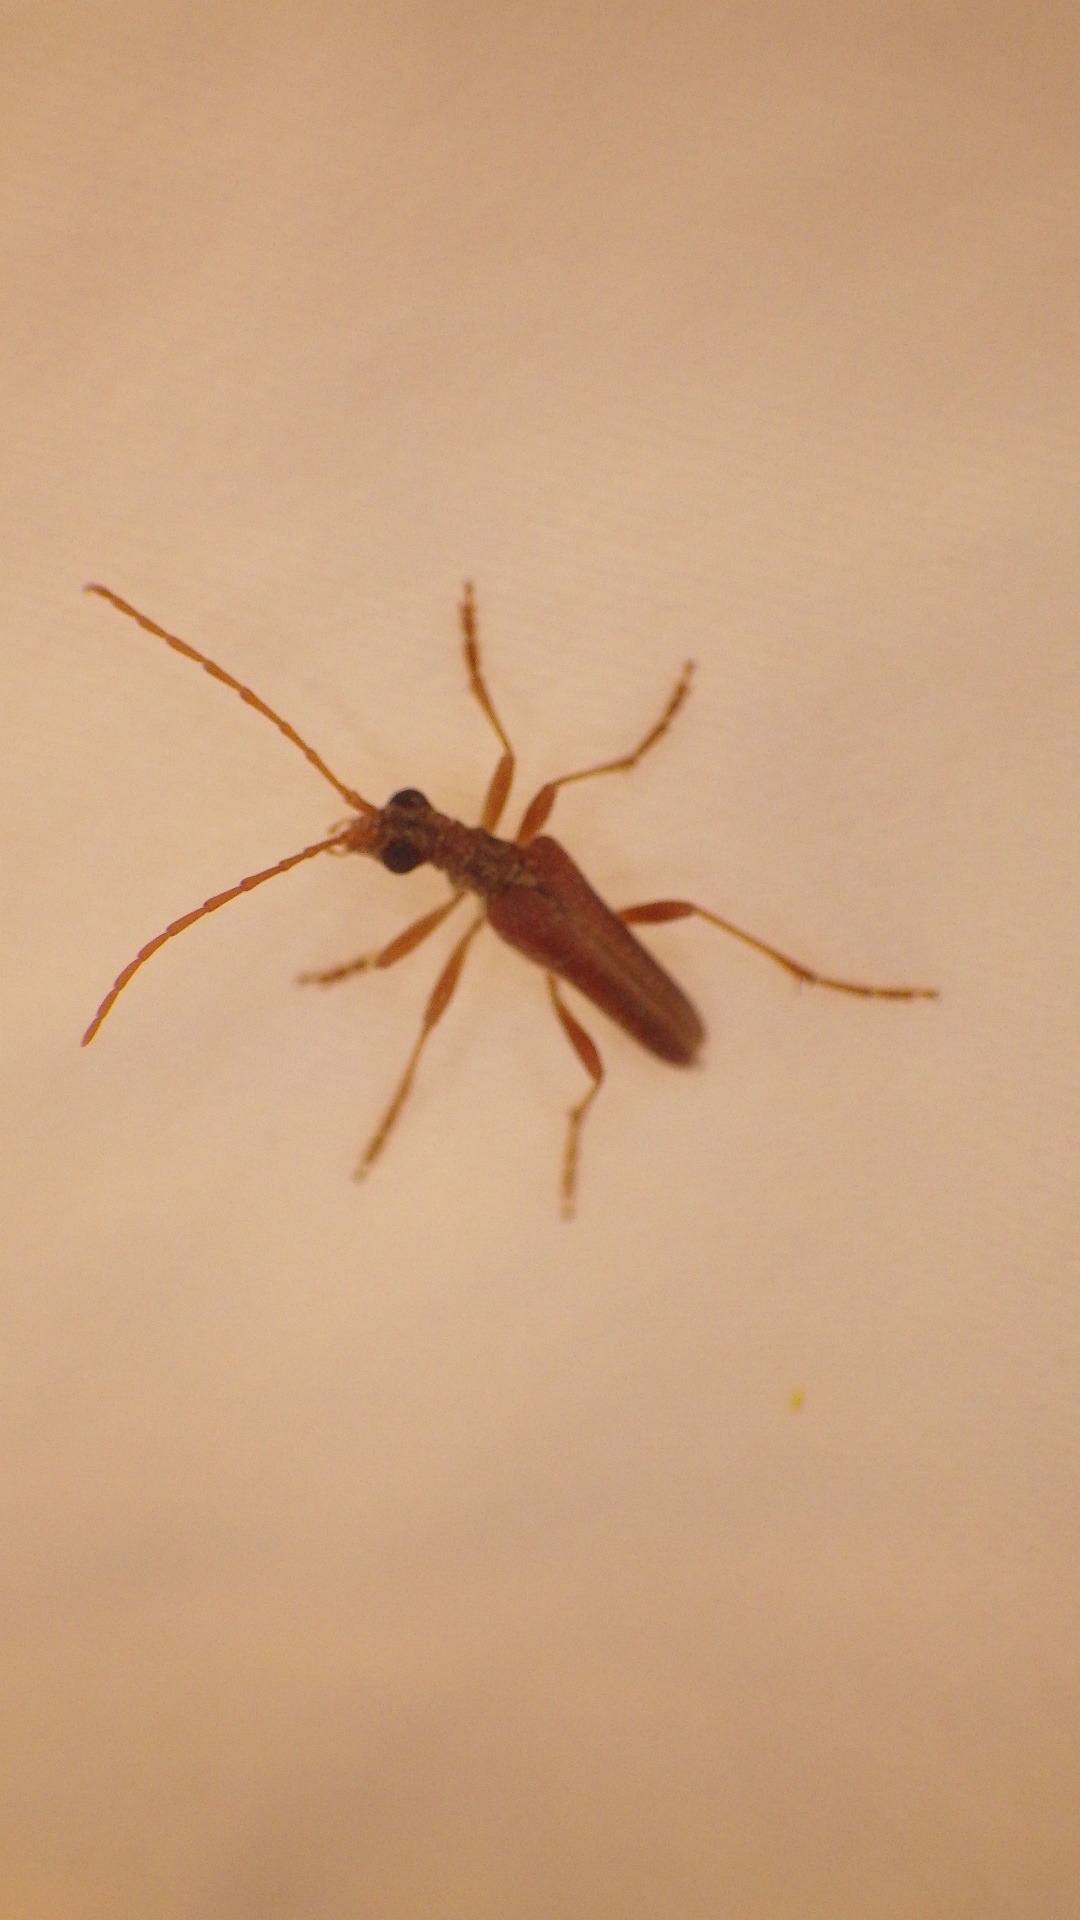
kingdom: Animalia
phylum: Arthropoda
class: Insecta
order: Coleoptera
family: Cerambycidae
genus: Stenocorus
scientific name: Stenocorus cinnamopterus
